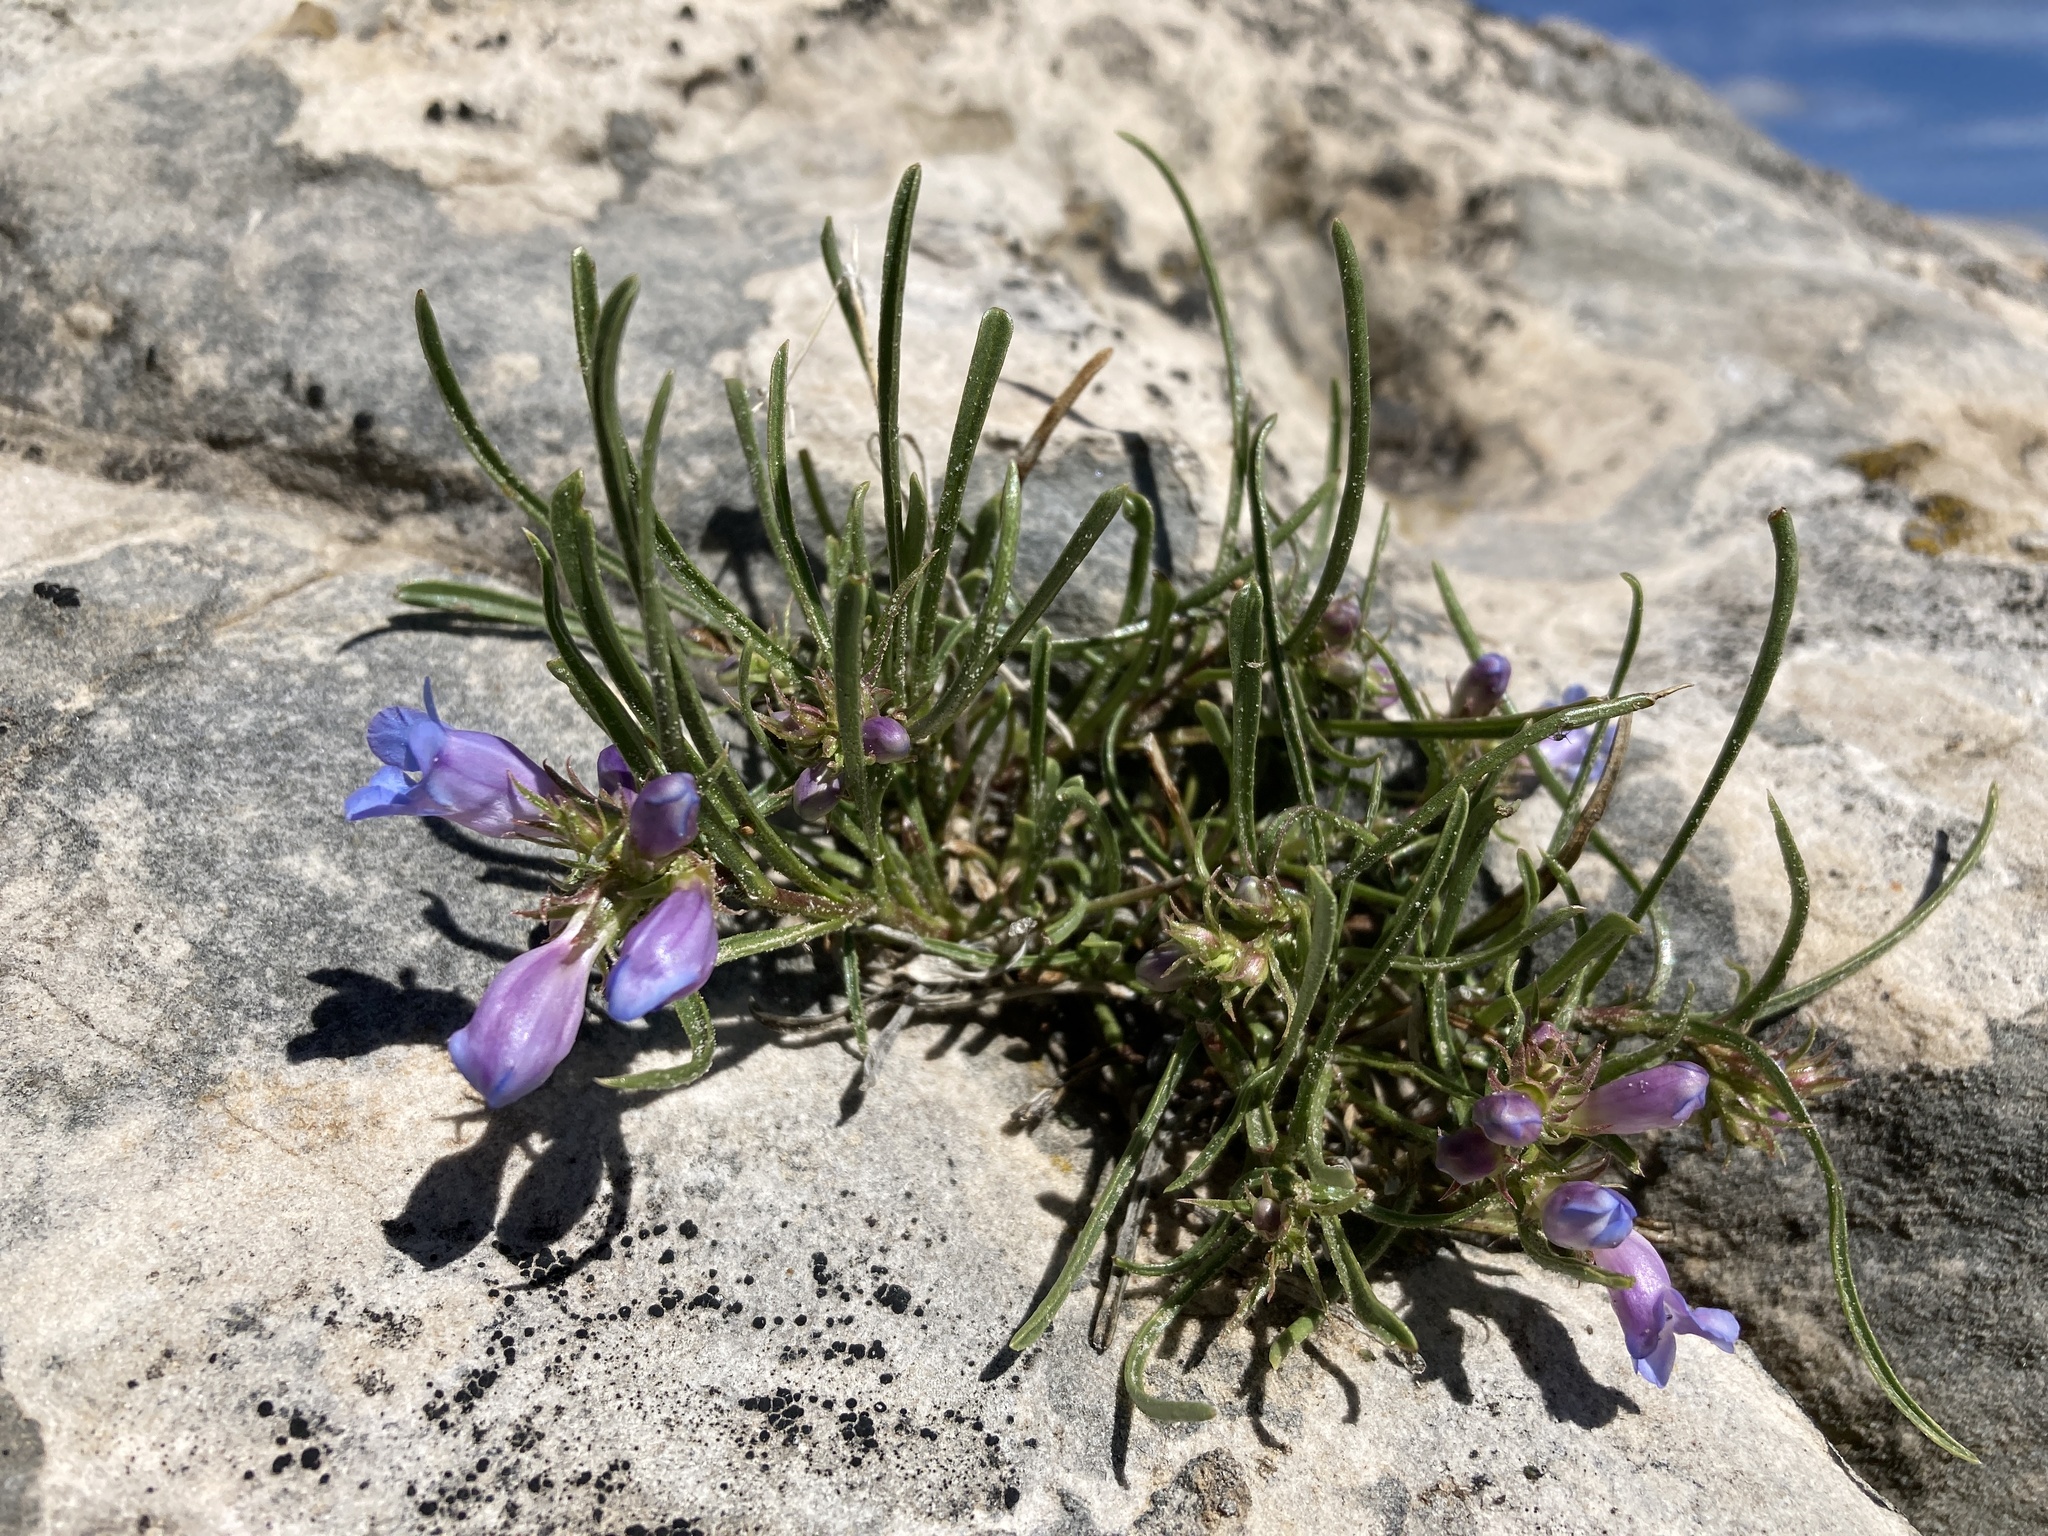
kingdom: Plantae
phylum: Tracheophyta
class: Magnoliopsida
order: Lamiales
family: Plantaginaceae
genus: Penstemon
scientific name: Penstemon caryi
